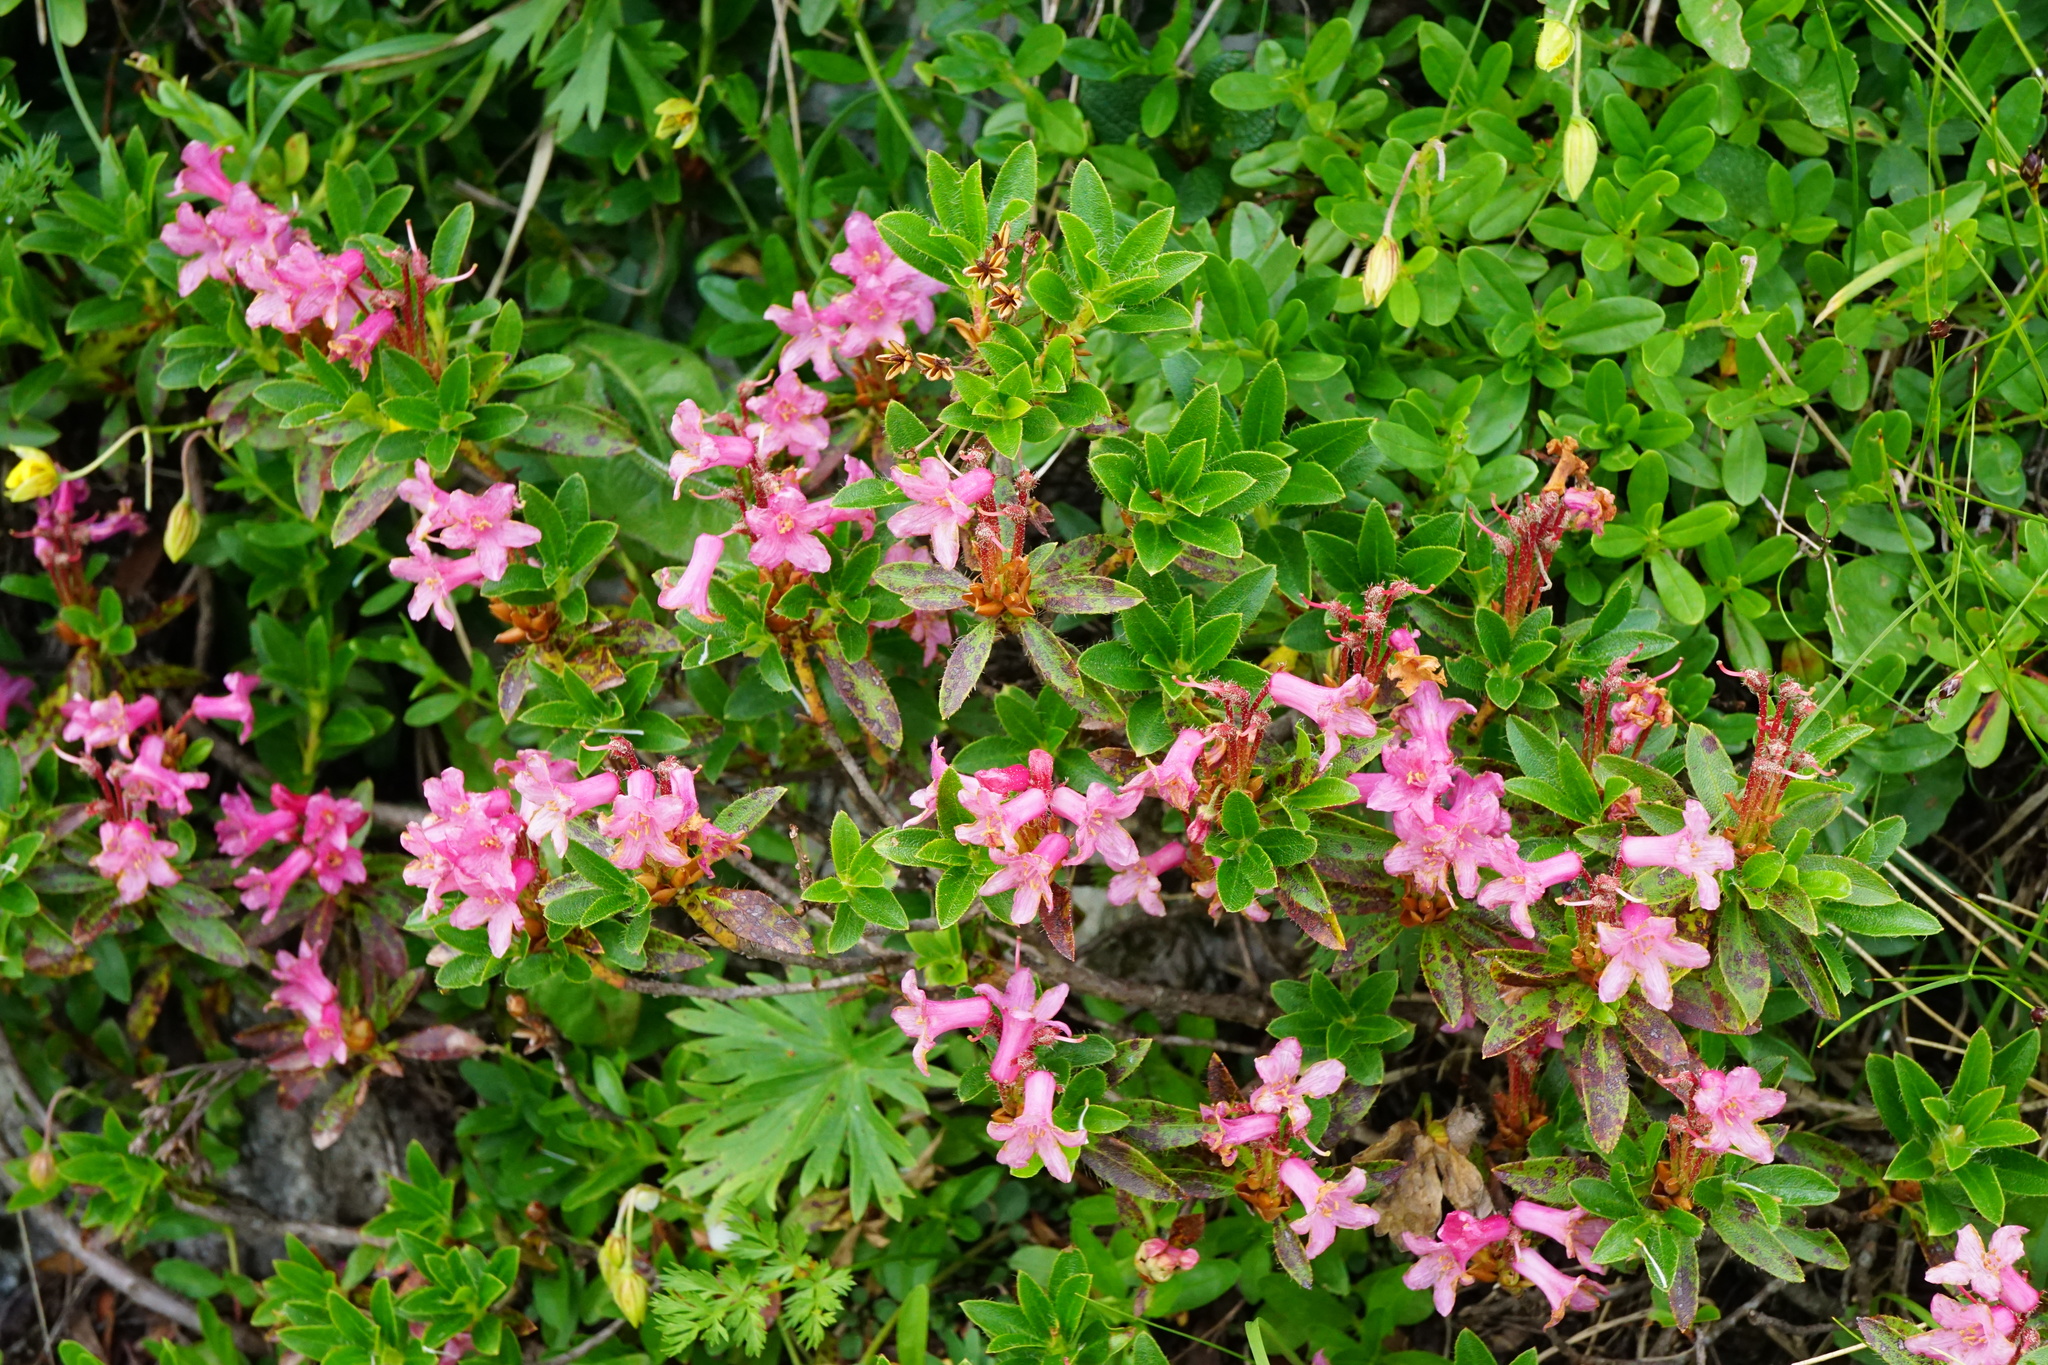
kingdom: Plantae
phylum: Tracheophyta
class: Magnoliopsida
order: Ericales
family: Ericaceae
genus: Rhododendron
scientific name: Rhododendron hirsutum
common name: Hairy alpenrose
